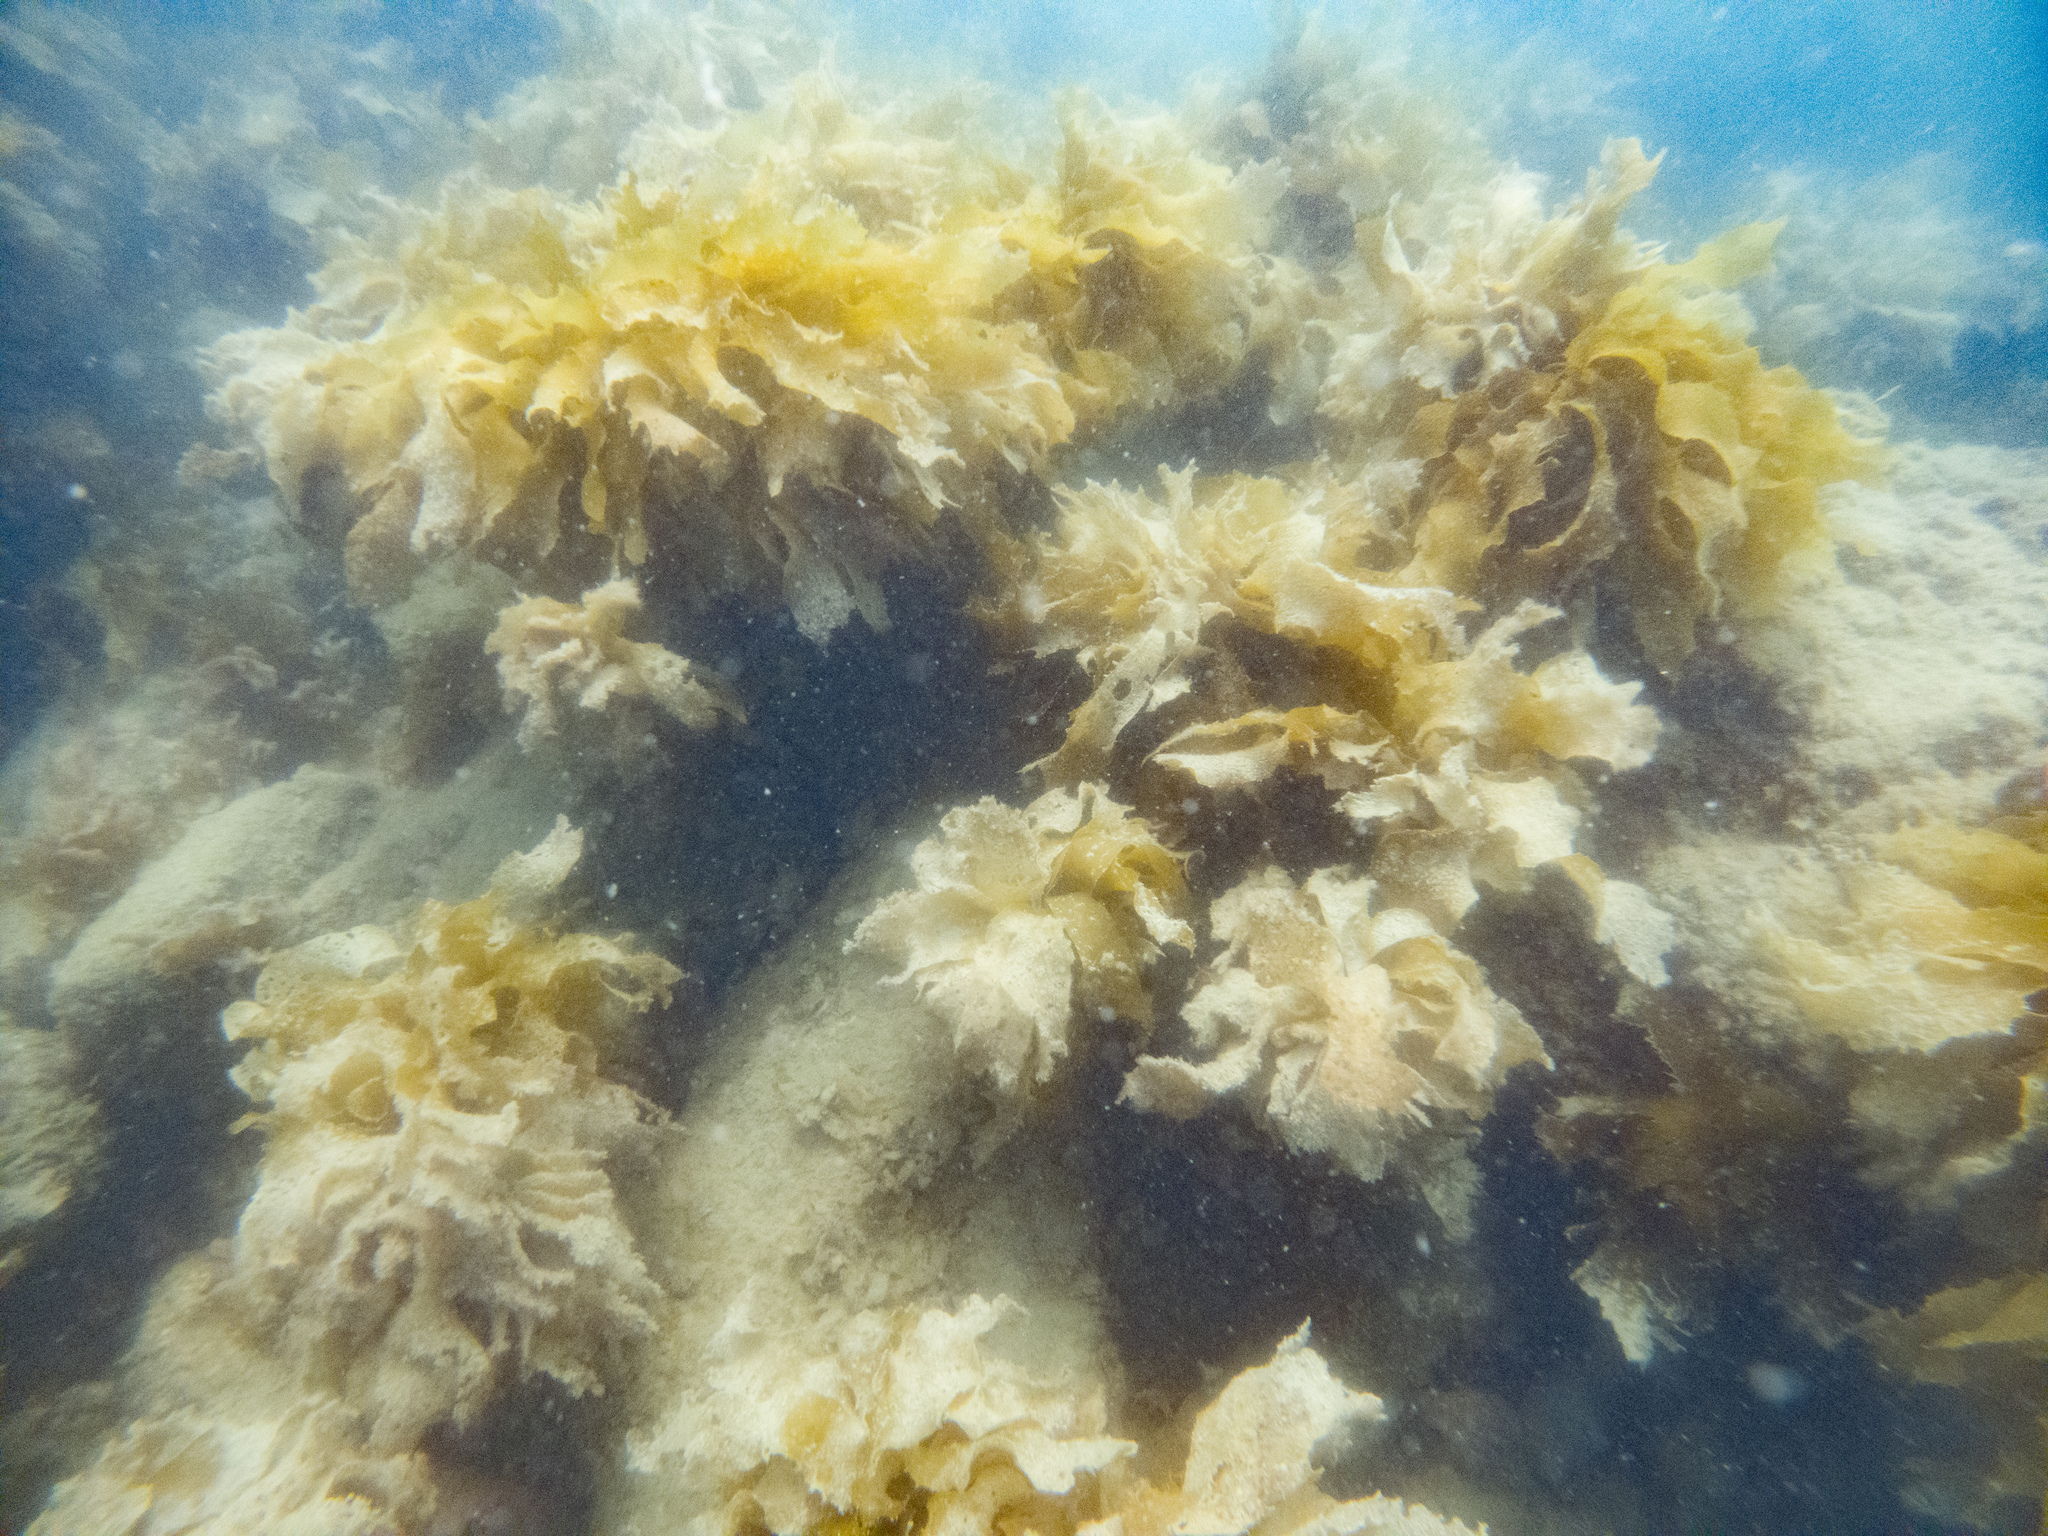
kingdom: Chromista
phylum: Ochrophyta
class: Phaeophyceae
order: Laminariales
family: Lessoniaceae
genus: Ecklonia
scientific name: Ecklonia radiata
